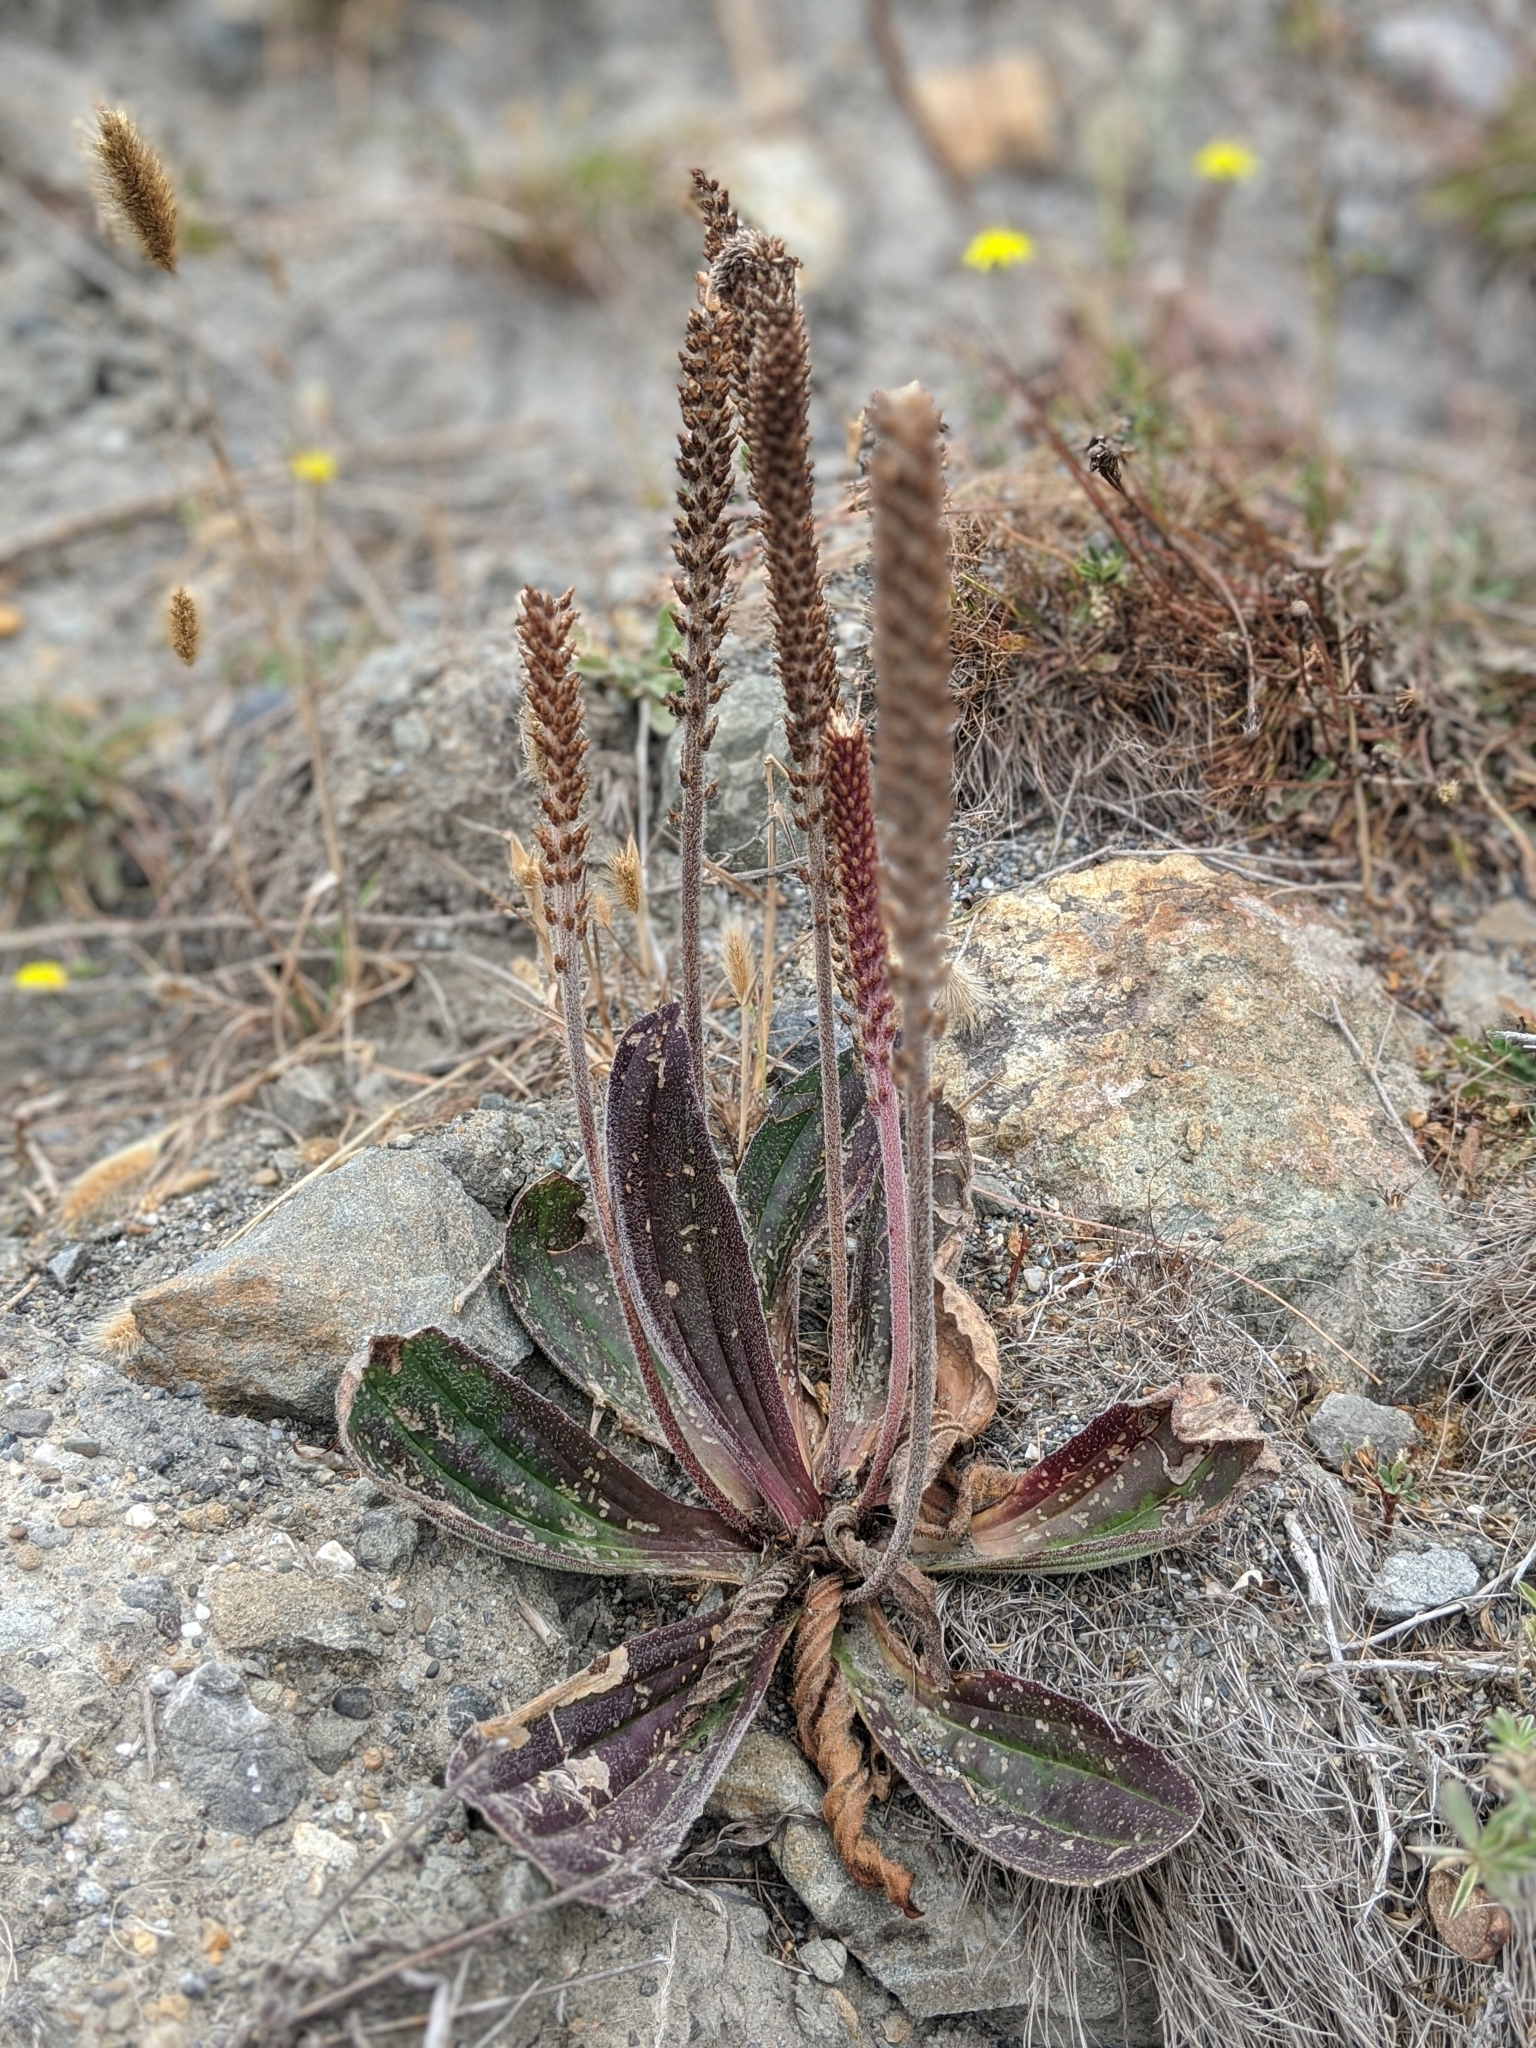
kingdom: Plantae
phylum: Tracheophyta
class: Magnoliopsida
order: Lamiales
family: Plantaginaceae
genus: Plantago
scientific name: Plantago subnuda
